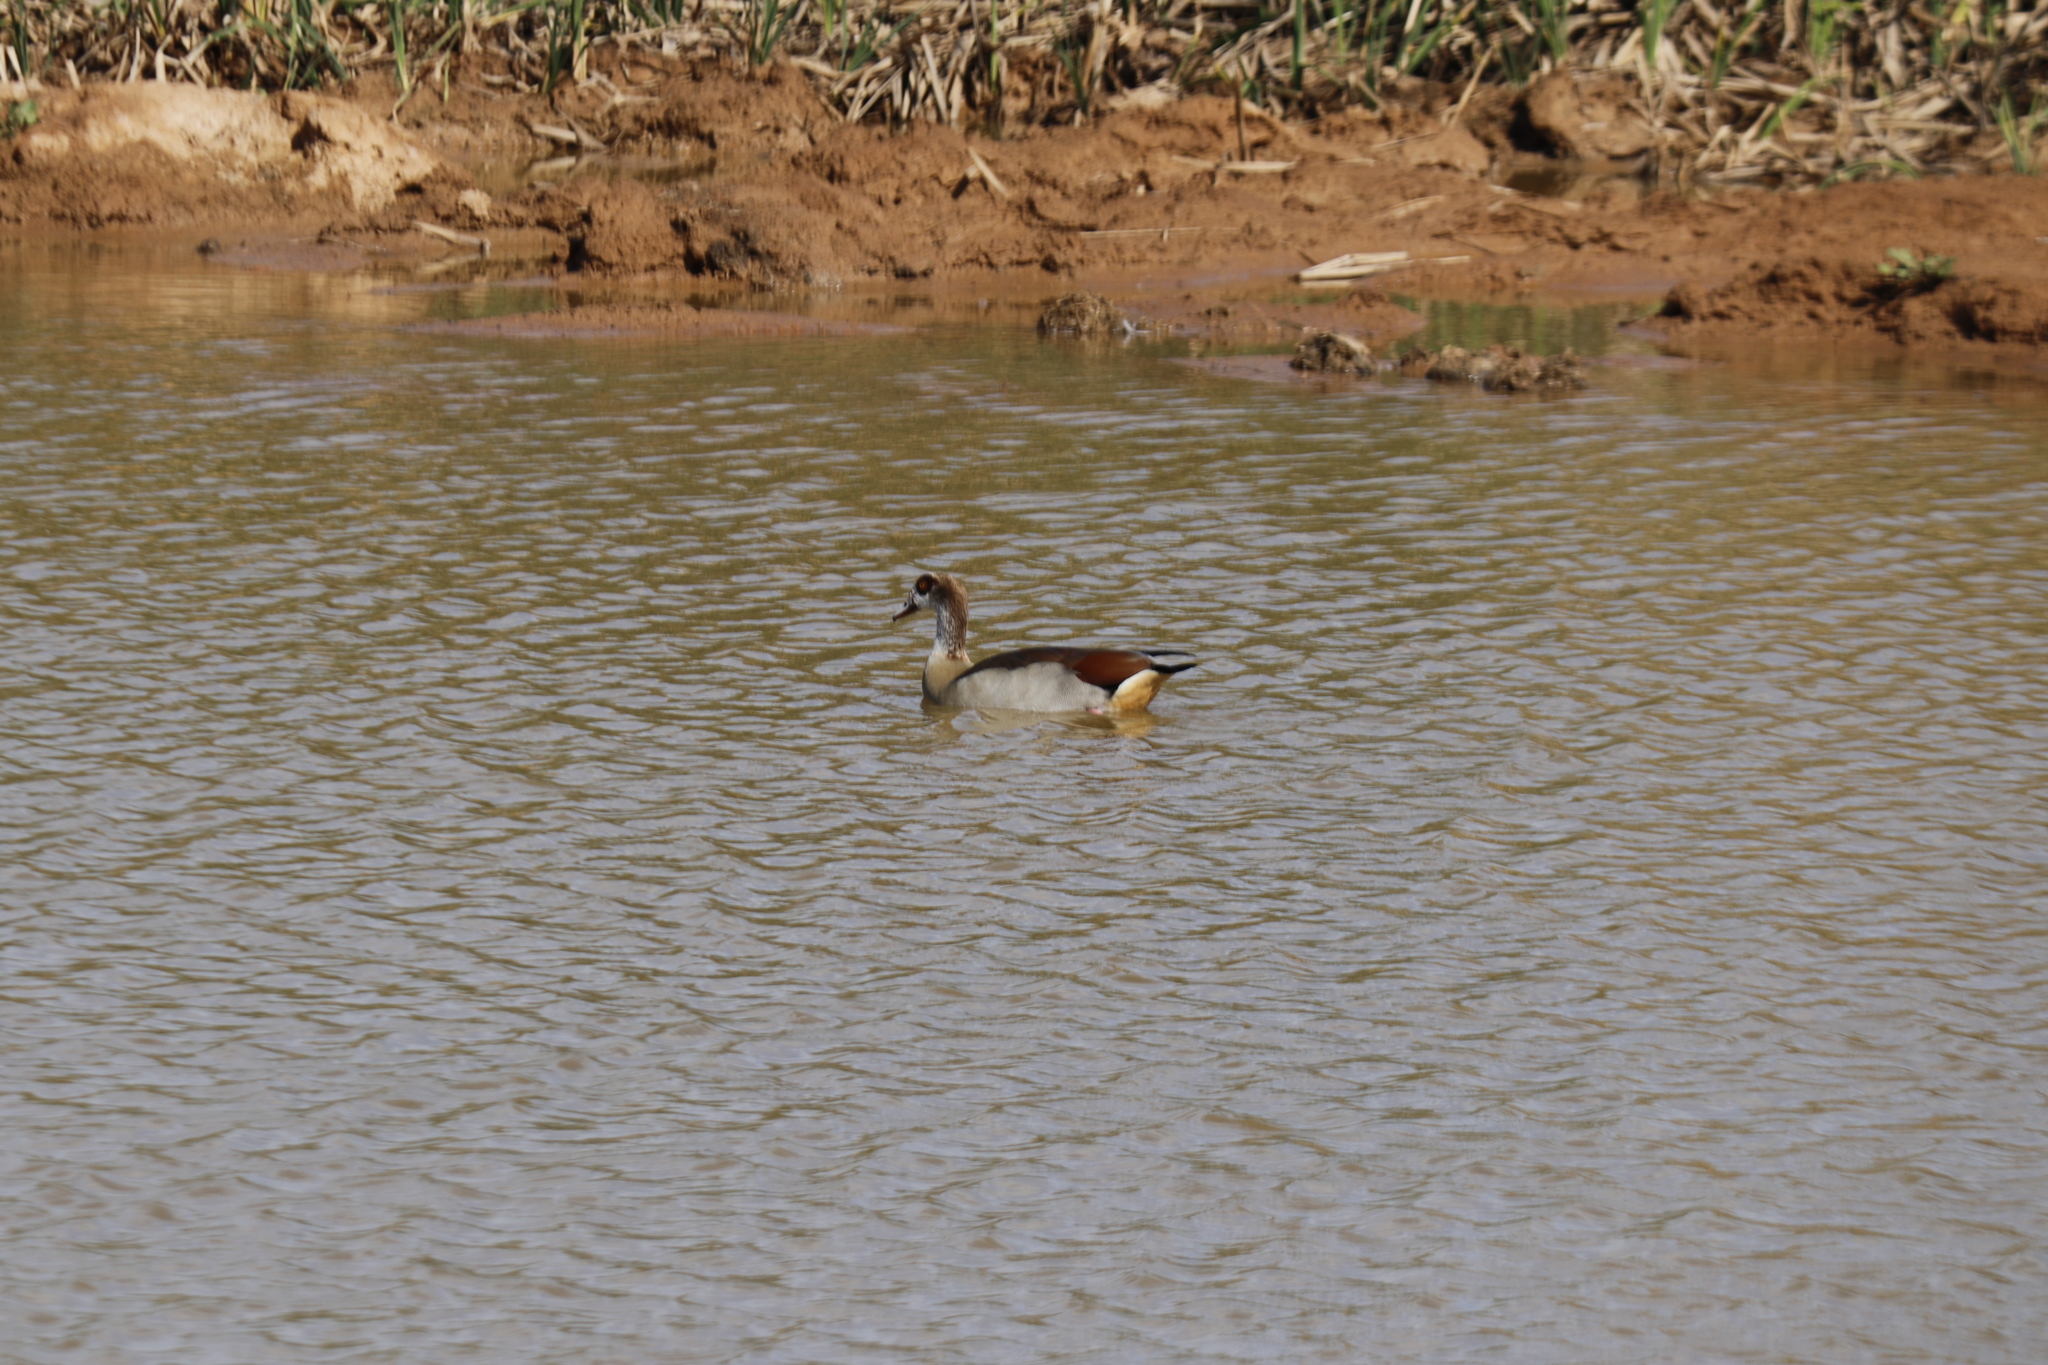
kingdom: Animalia
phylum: Chordata
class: Aves
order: Anseriformes
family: Anatidae
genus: Alopochen
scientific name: Alopochen aegyptiaca
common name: Egyptian goose
